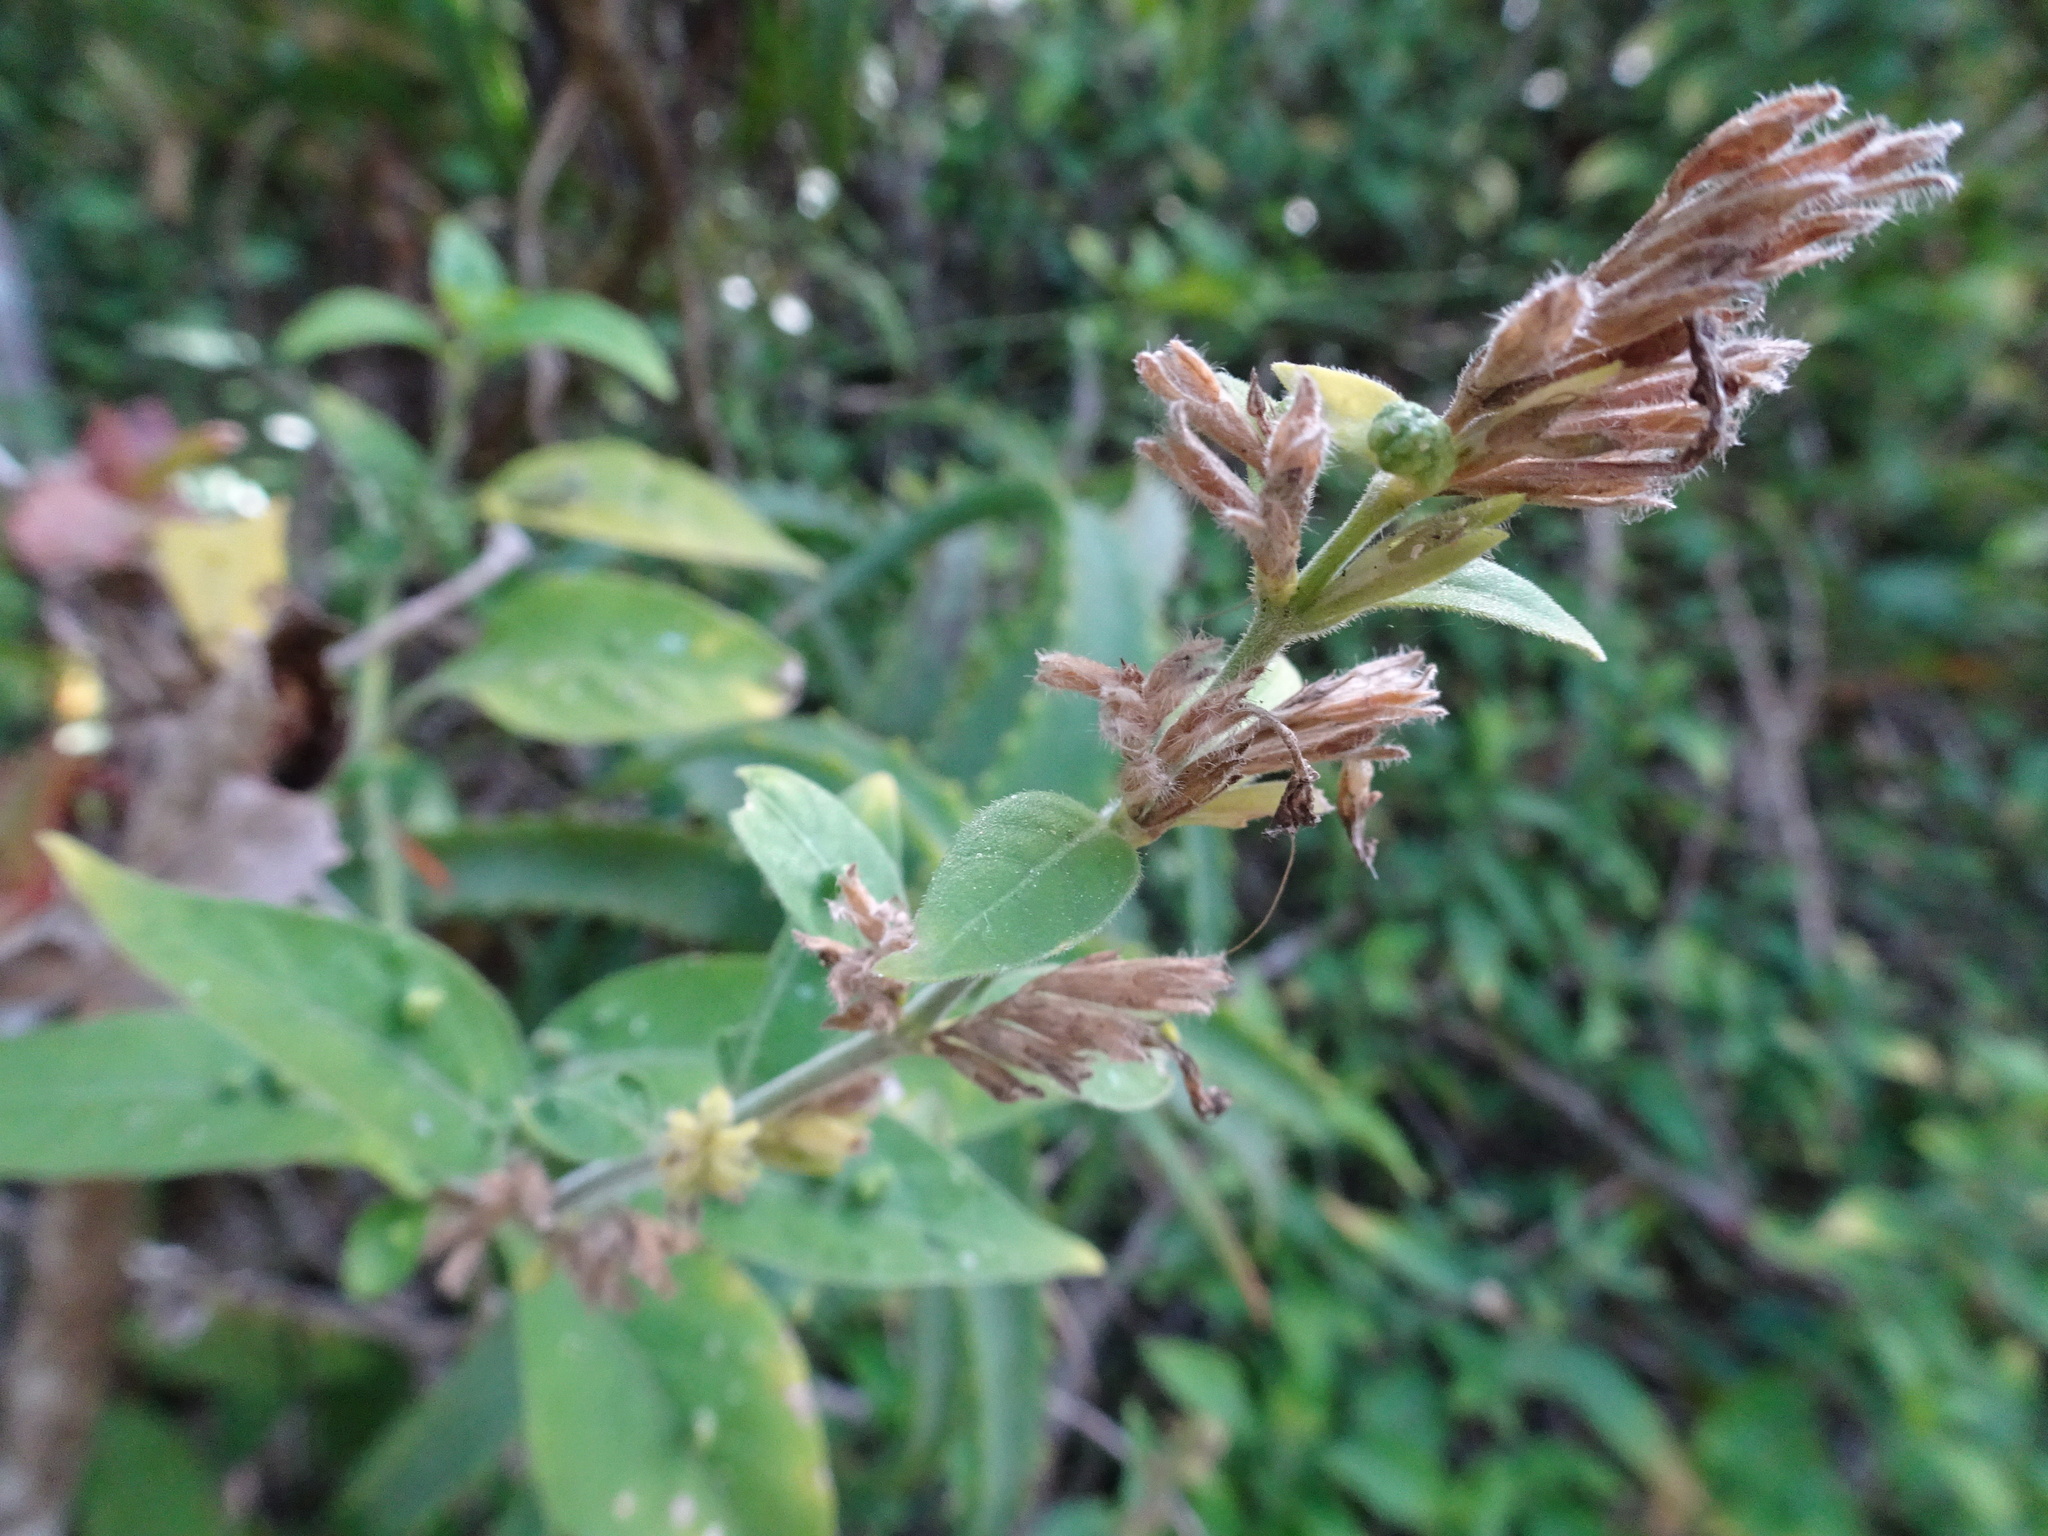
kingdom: Plantae
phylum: Tracheophyta
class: Magnoliopsida
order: Lamiales
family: Acanthaceae
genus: Hypoestes
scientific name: Hypoestes forskaolii
